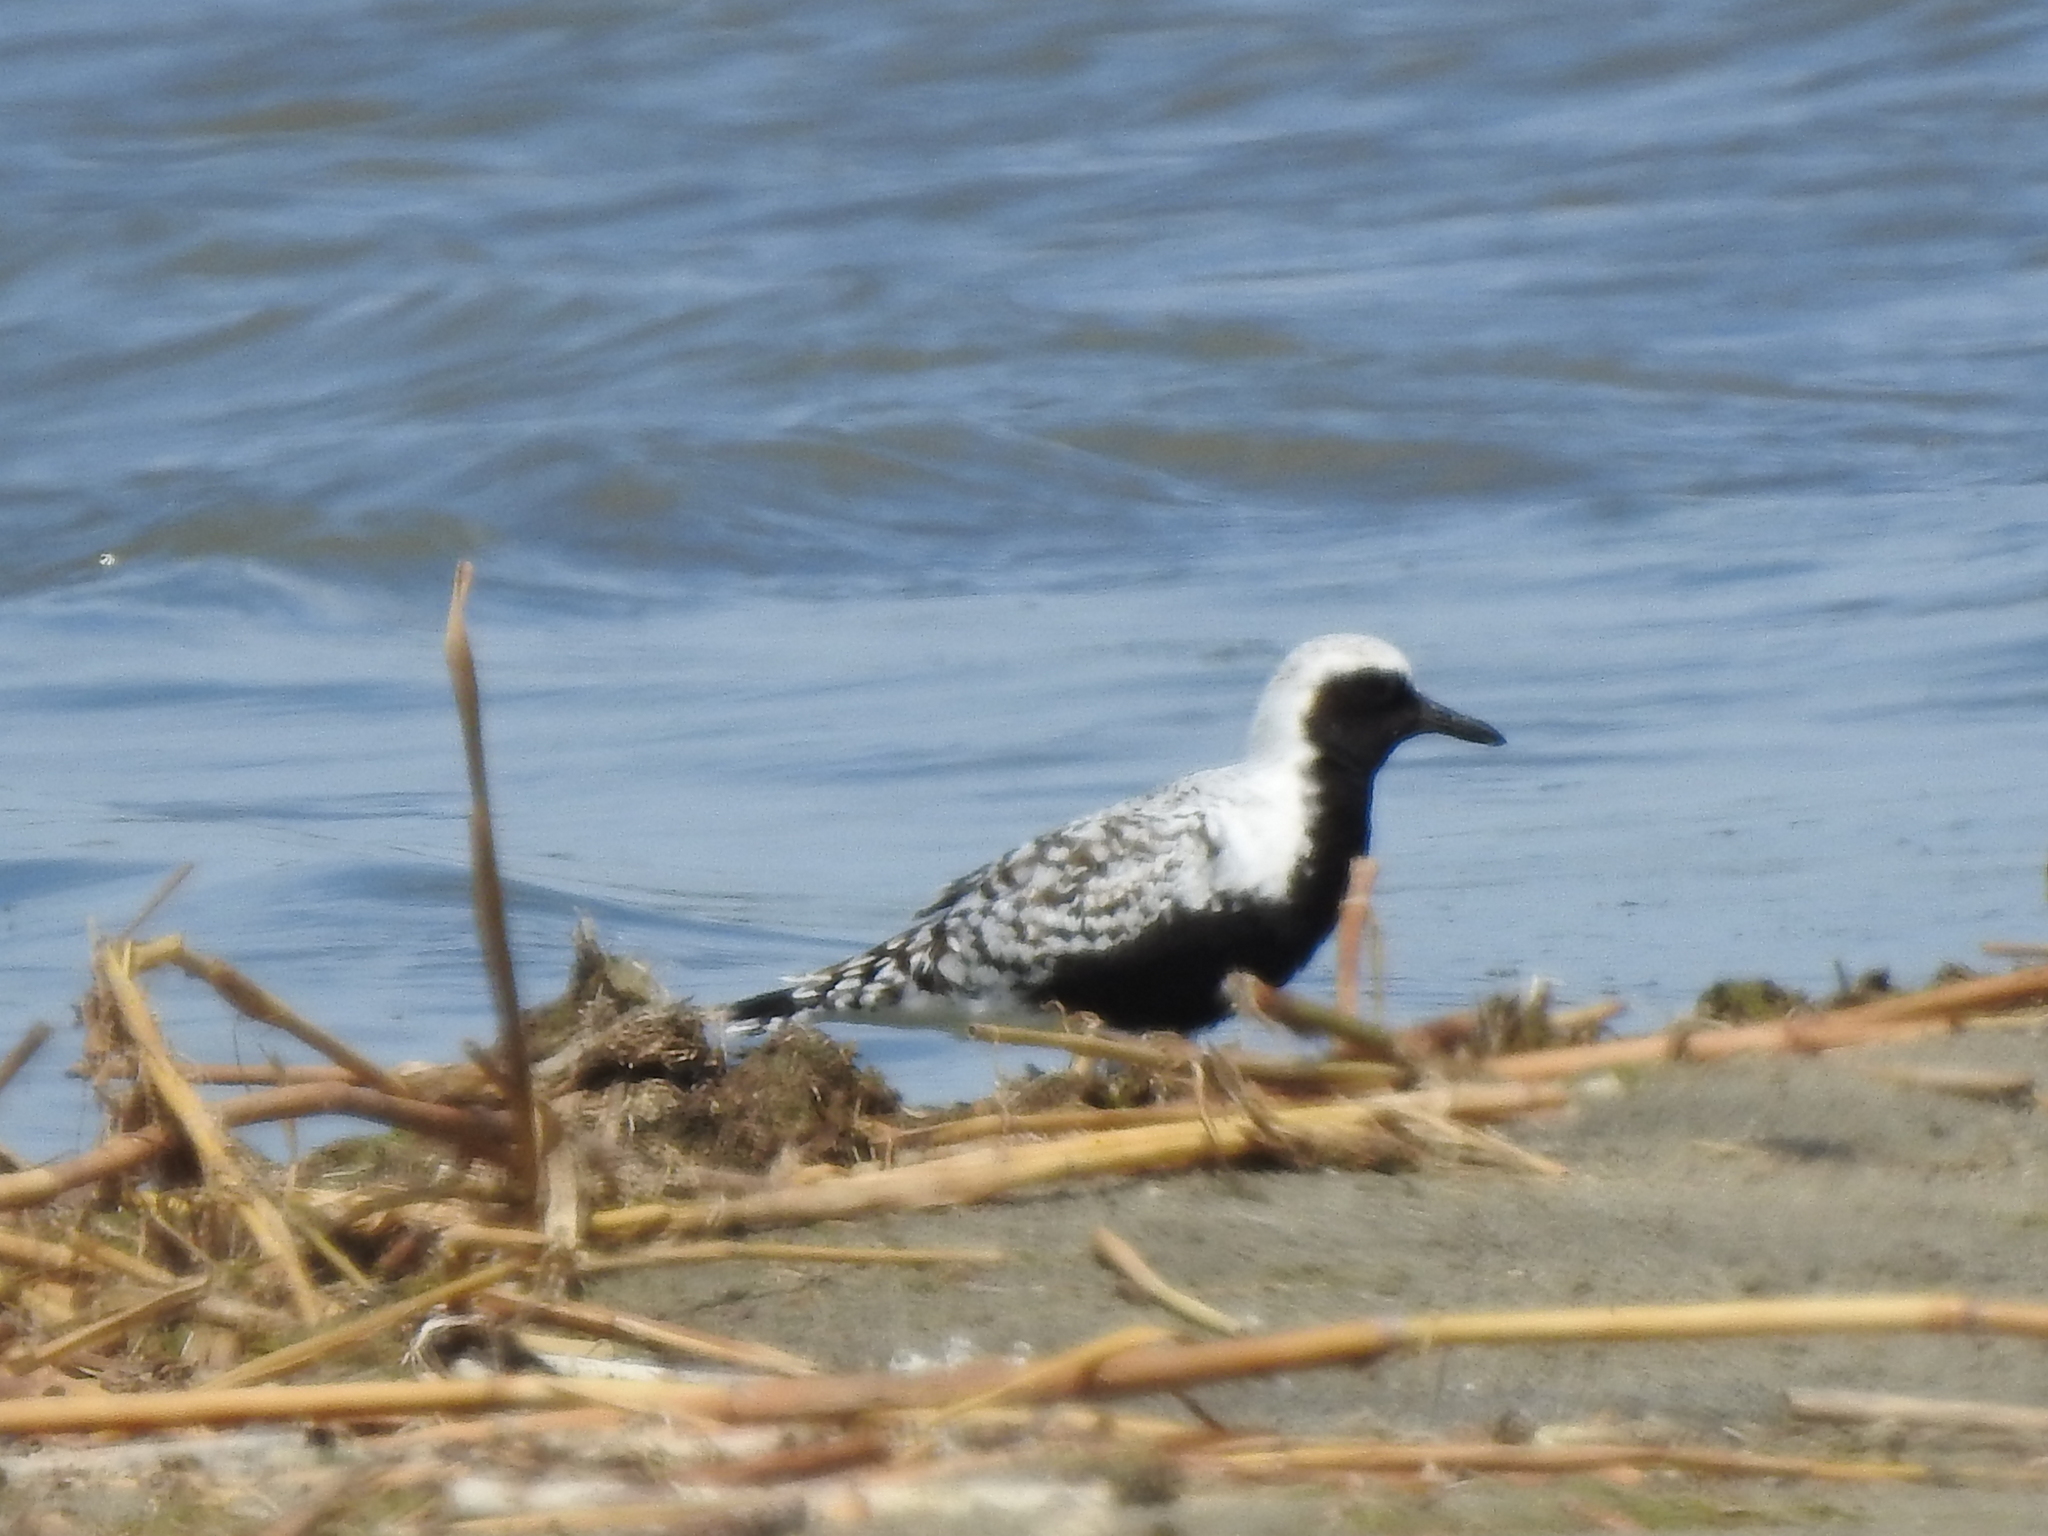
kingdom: Animalia
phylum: Chordata
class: Aves
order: Charadriiformes
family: Charadriidae
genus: Pluvialis
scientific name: Pluvialis squatarola
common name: Grey plover
